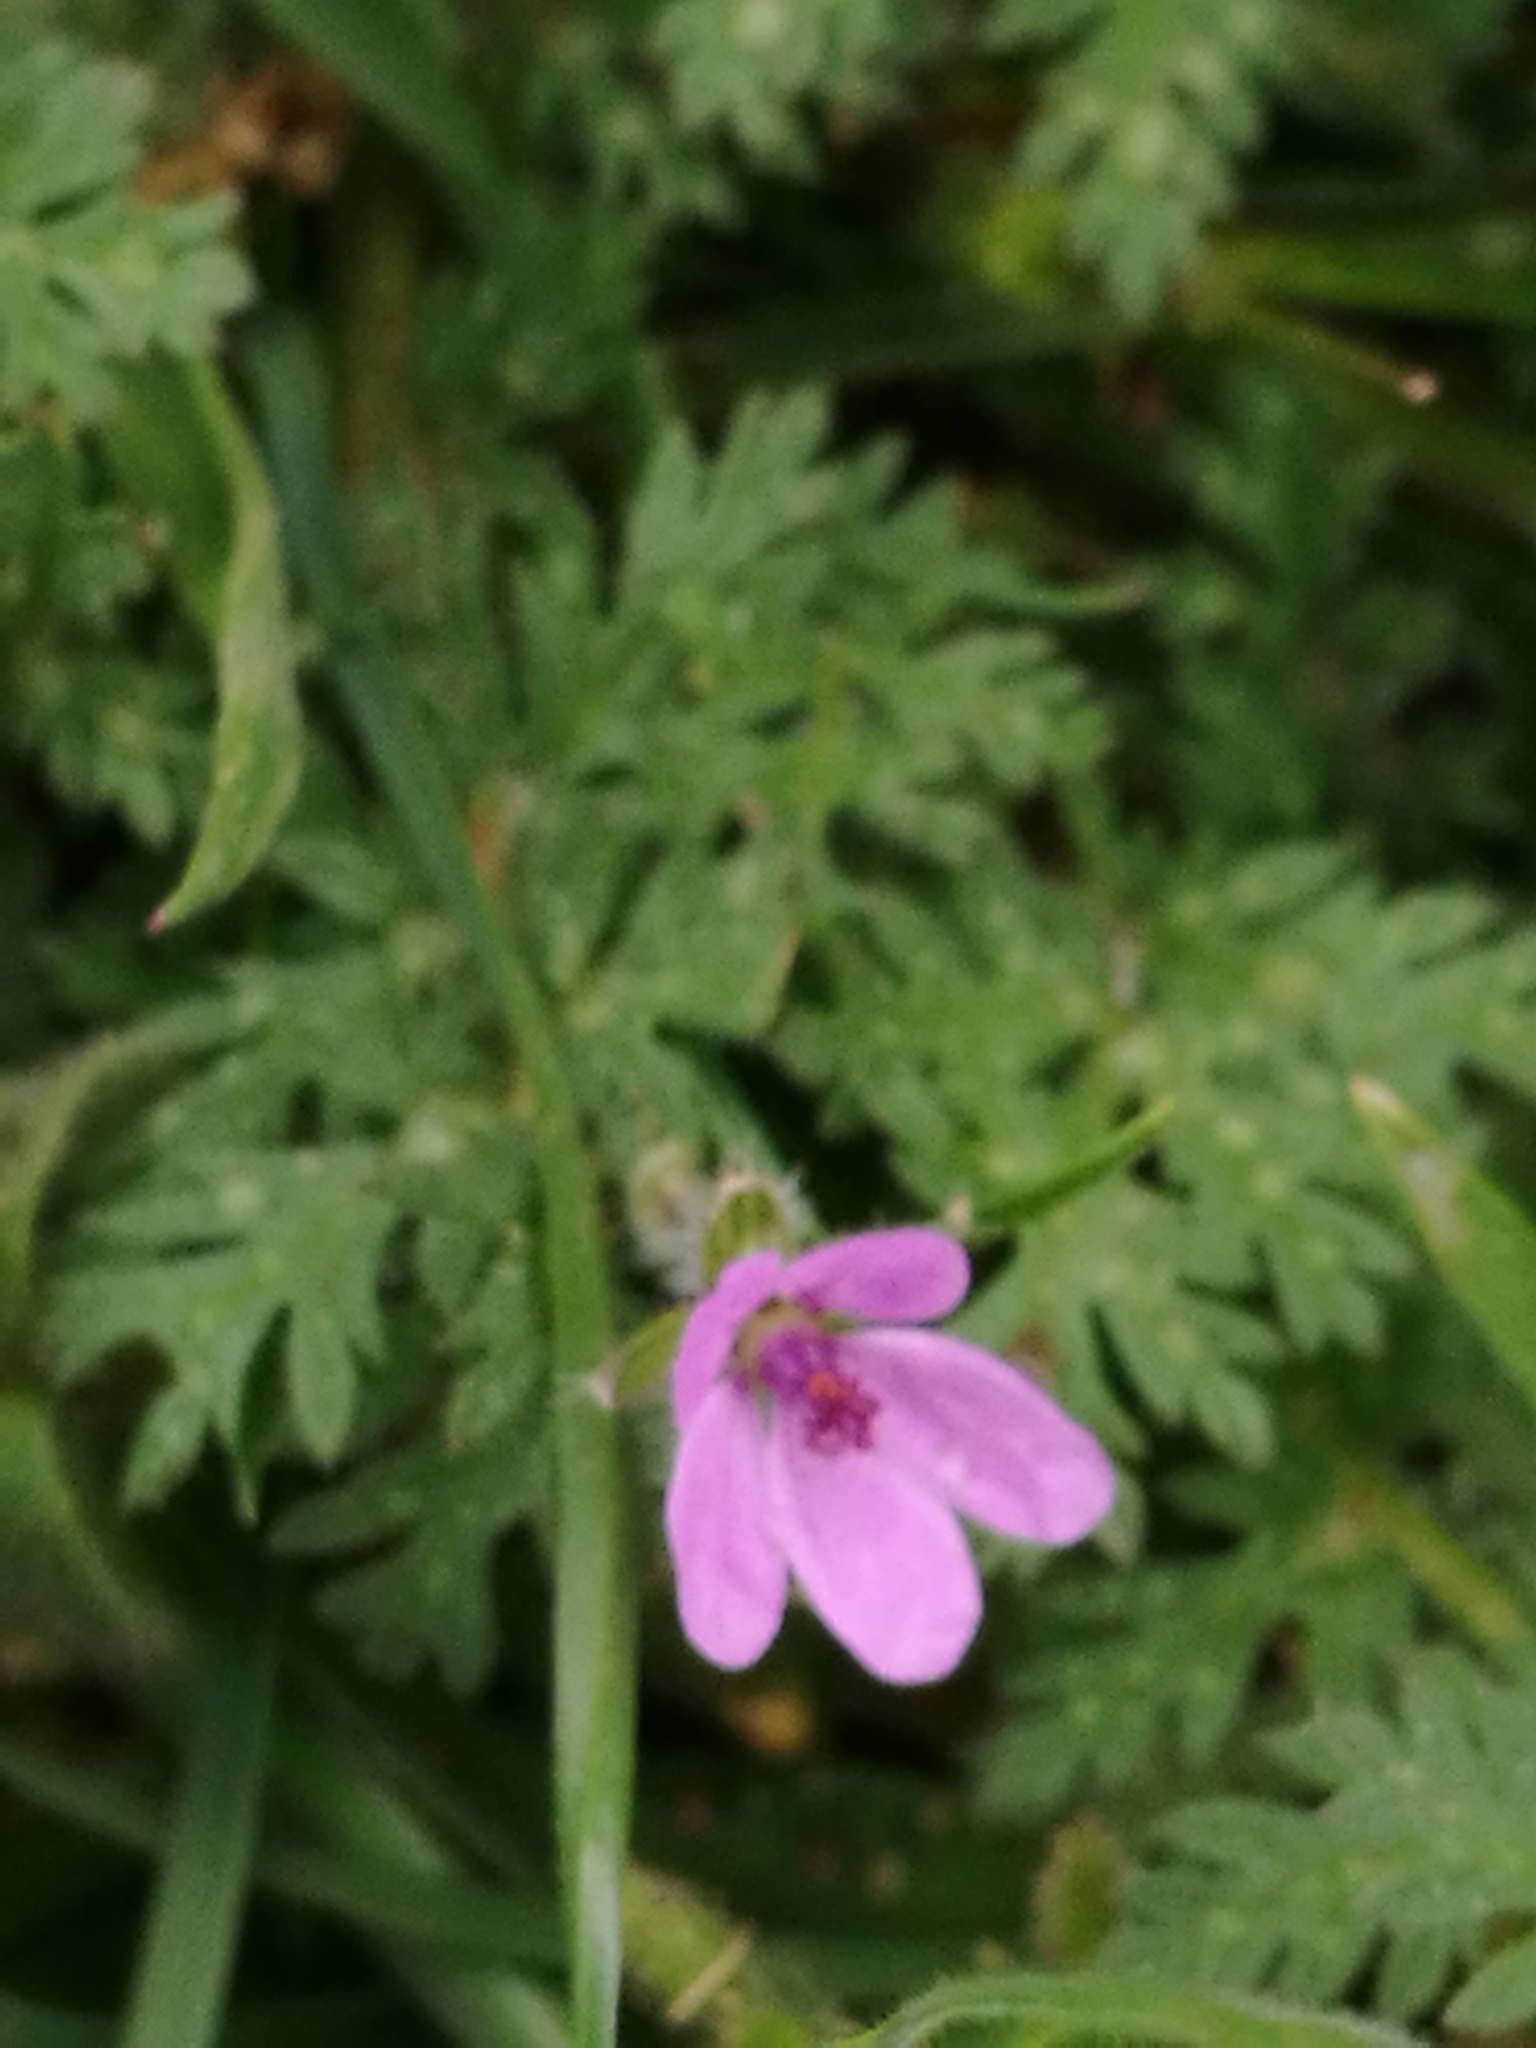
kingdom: Plantae
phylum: Tracheophyta
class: Magnoliopsida
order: Geraniales
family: Geraniaceae
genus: Erodium
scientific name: Erodium cicutarium
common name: Common stork's-bill
